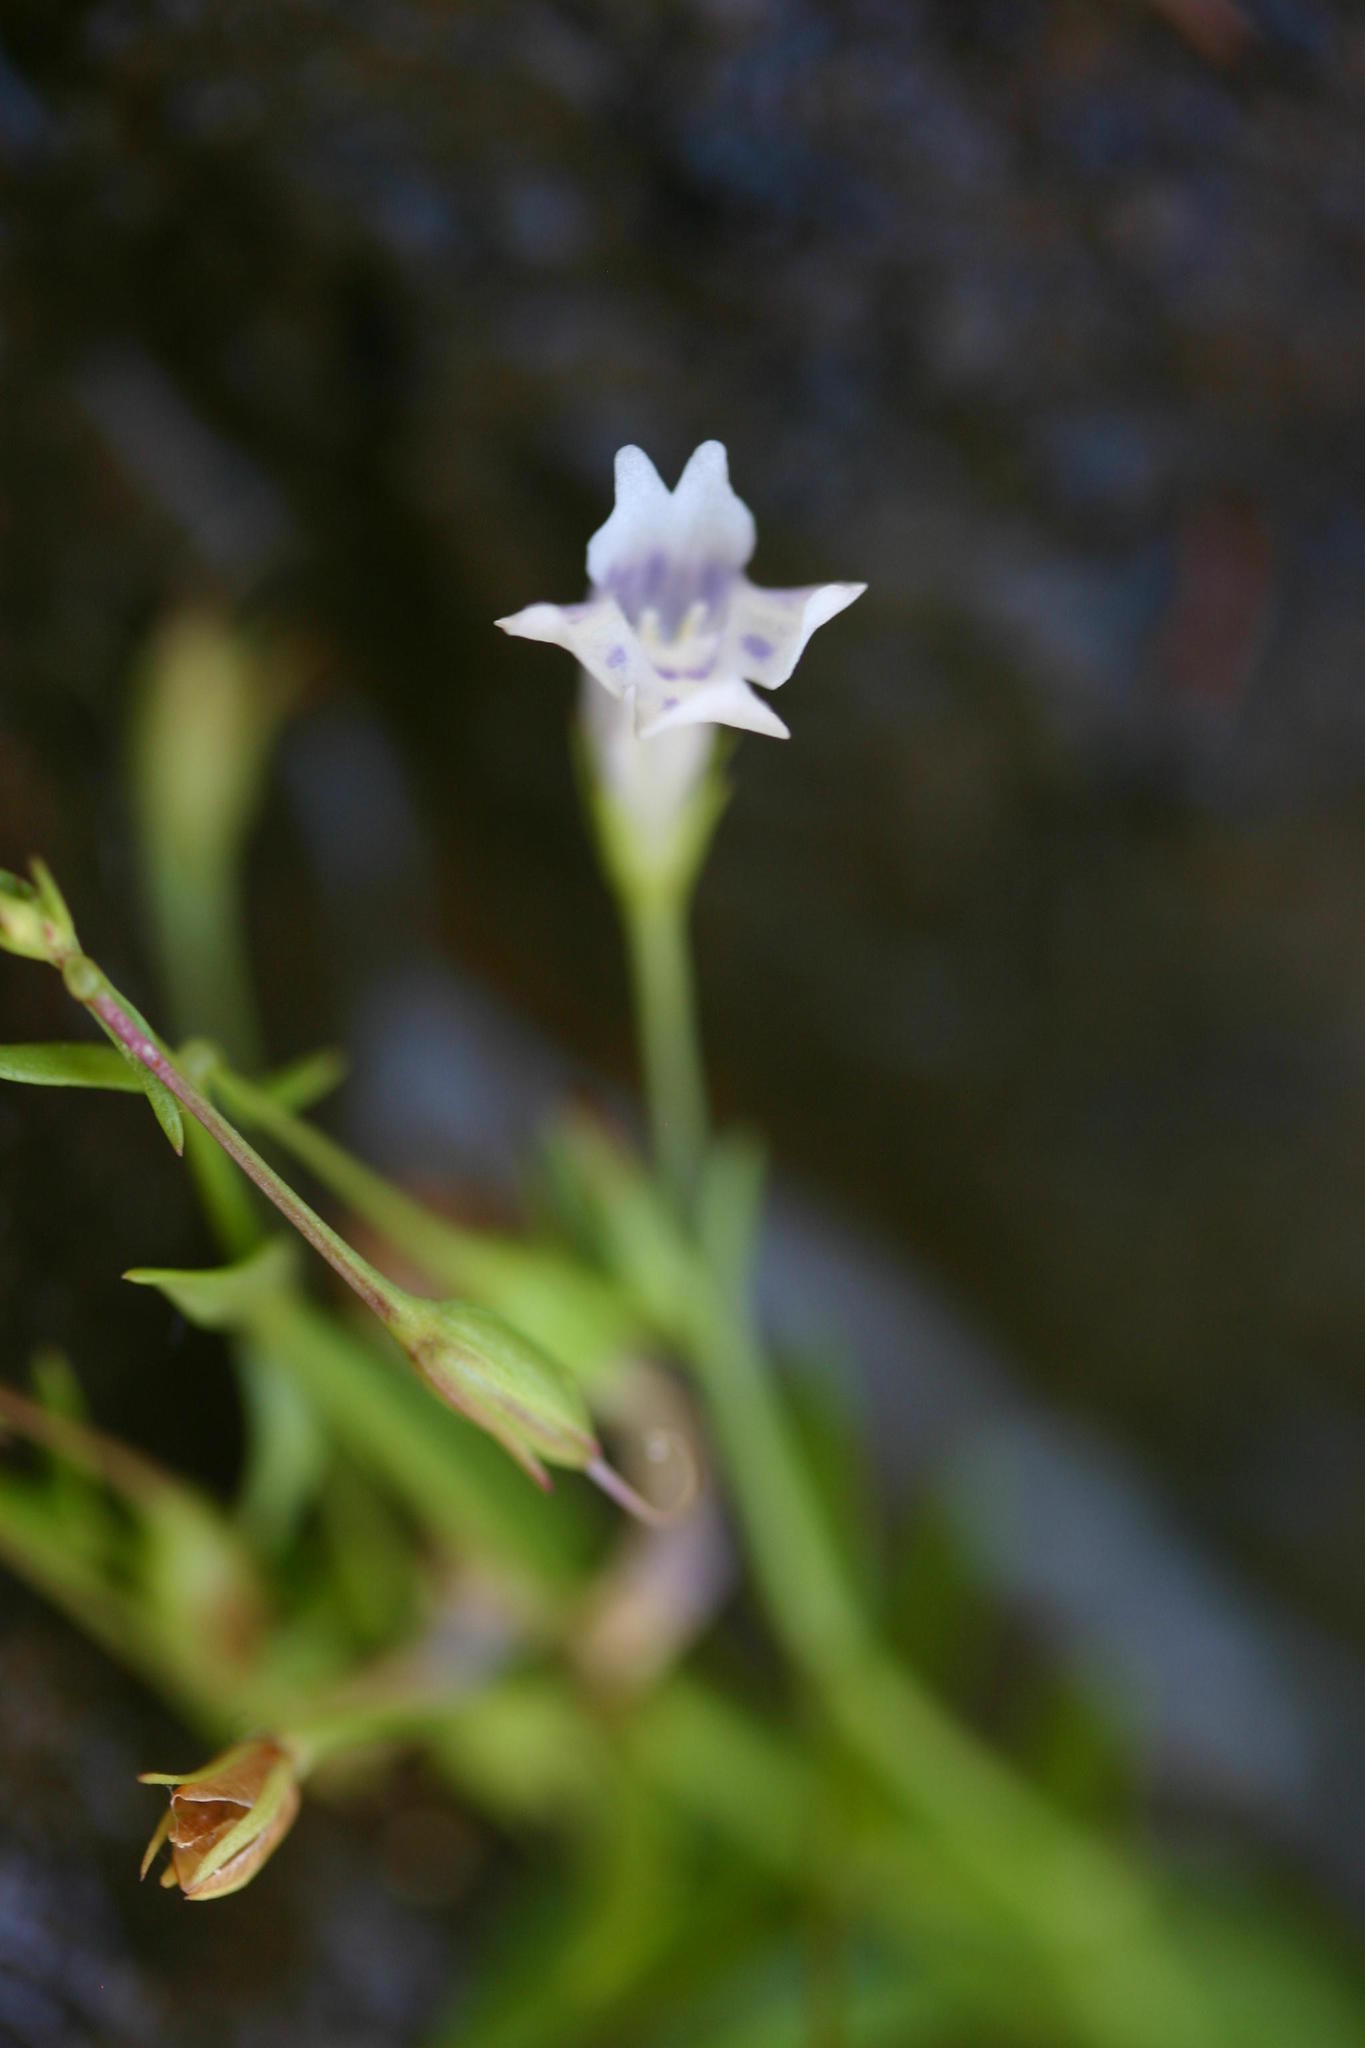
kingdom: Plantae
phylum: Tracheophyta
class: Magnoliopsida
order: Lamiales
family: Linderniaceae
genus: Lindernia
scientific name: Lindernia parviflora
